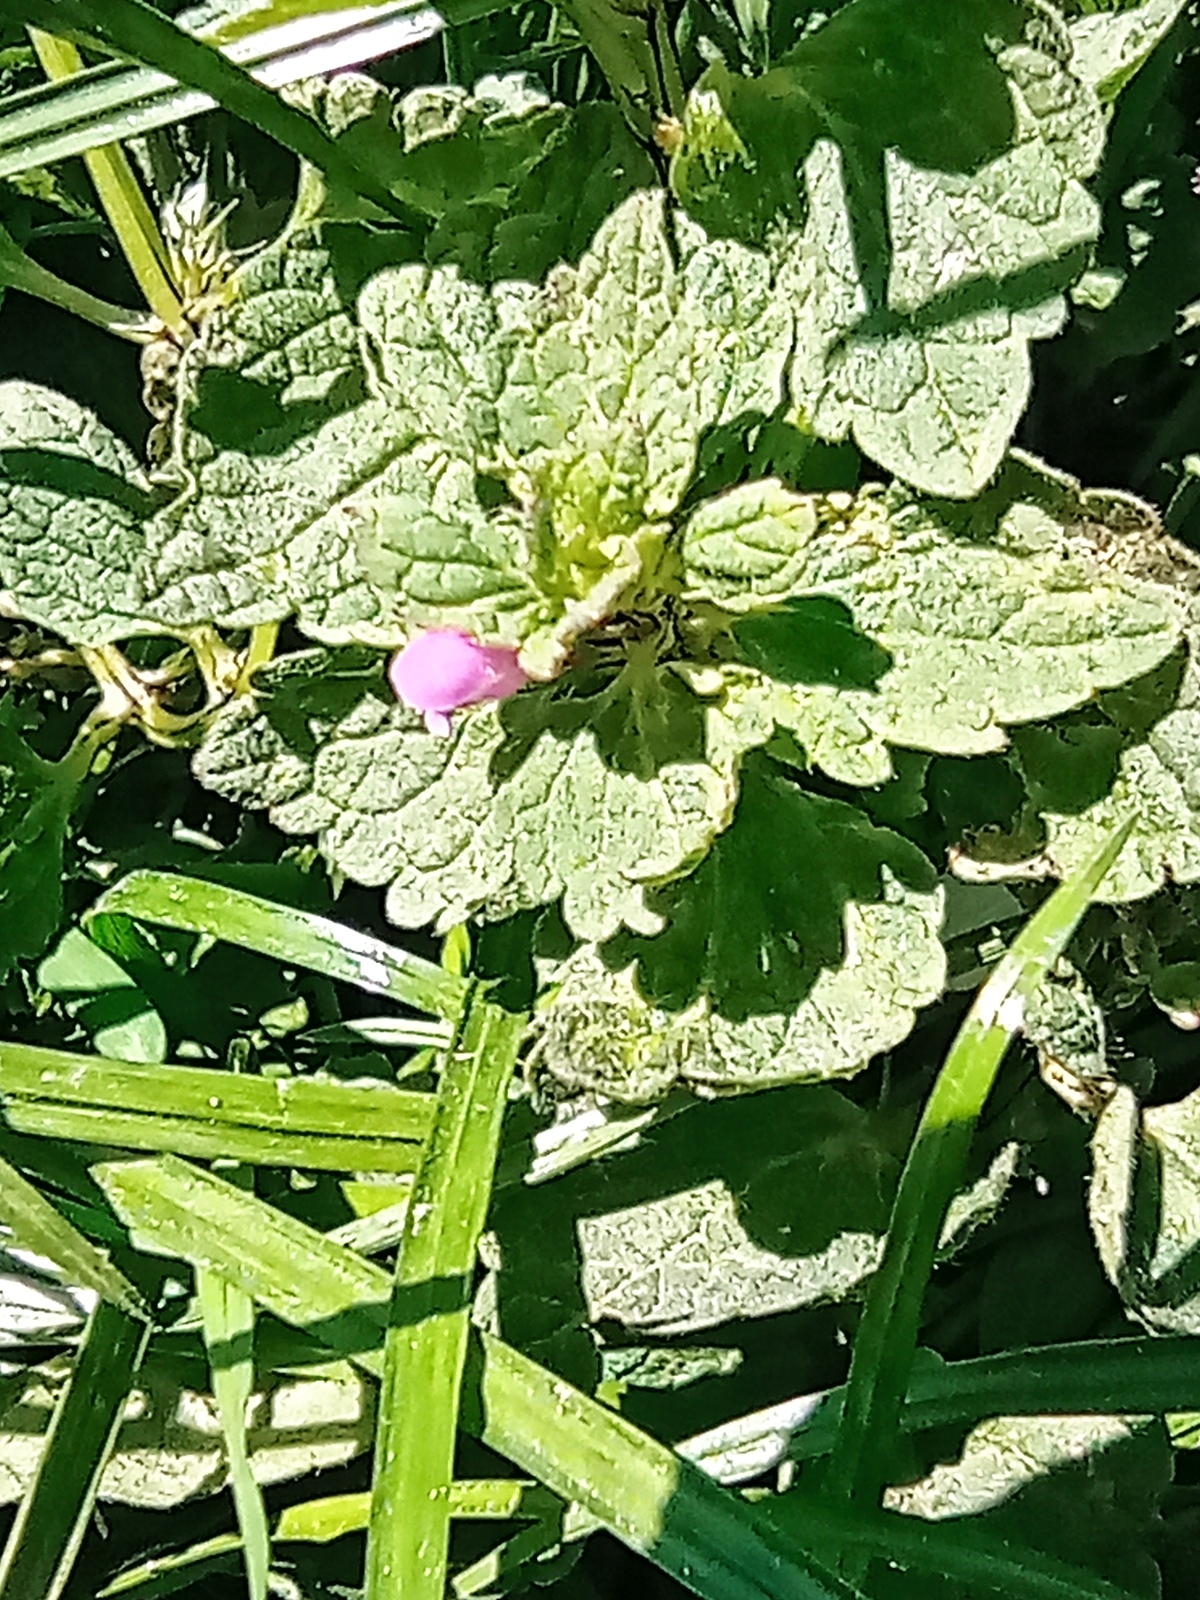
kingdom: Plantae
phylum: Tracheophyta
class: Magnoliopsida
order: Lamiales
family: Lamiaceae
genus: Lamium
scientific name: Lamium purpureum
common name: Red dead-nettle
